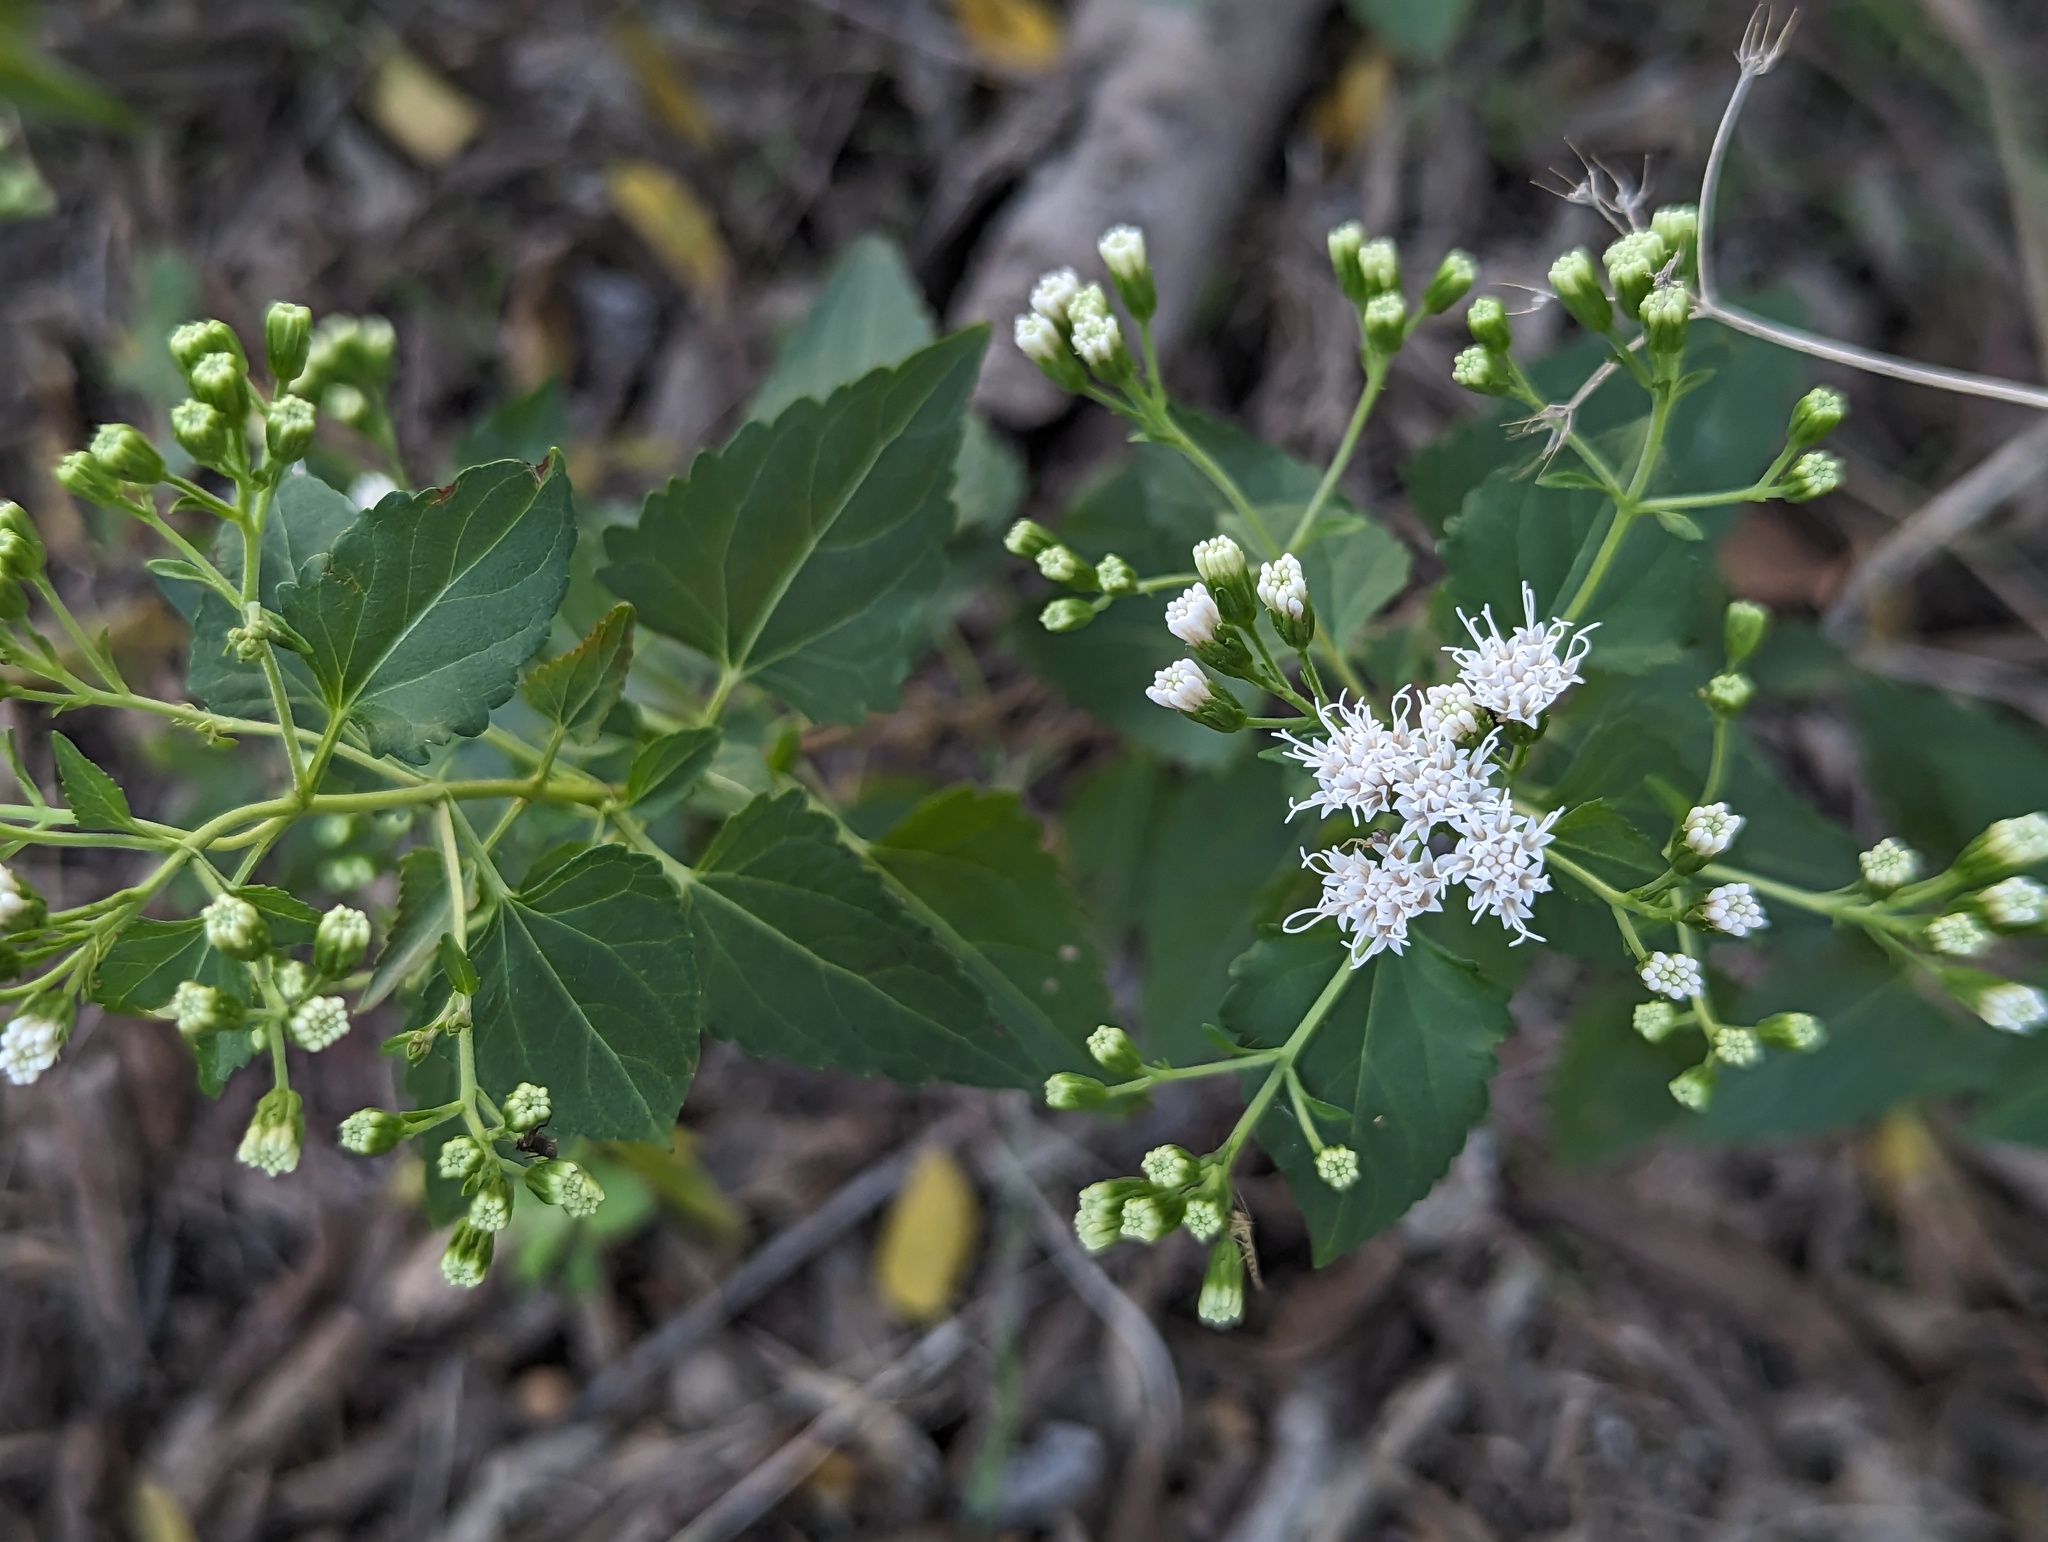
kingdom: Plantae
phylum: Tracheophyta
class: Magnoliopsida
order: Asterales
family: Asteraceae
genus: Ageratina
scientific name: Ageratina havanensis
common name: Havana snakeroot
